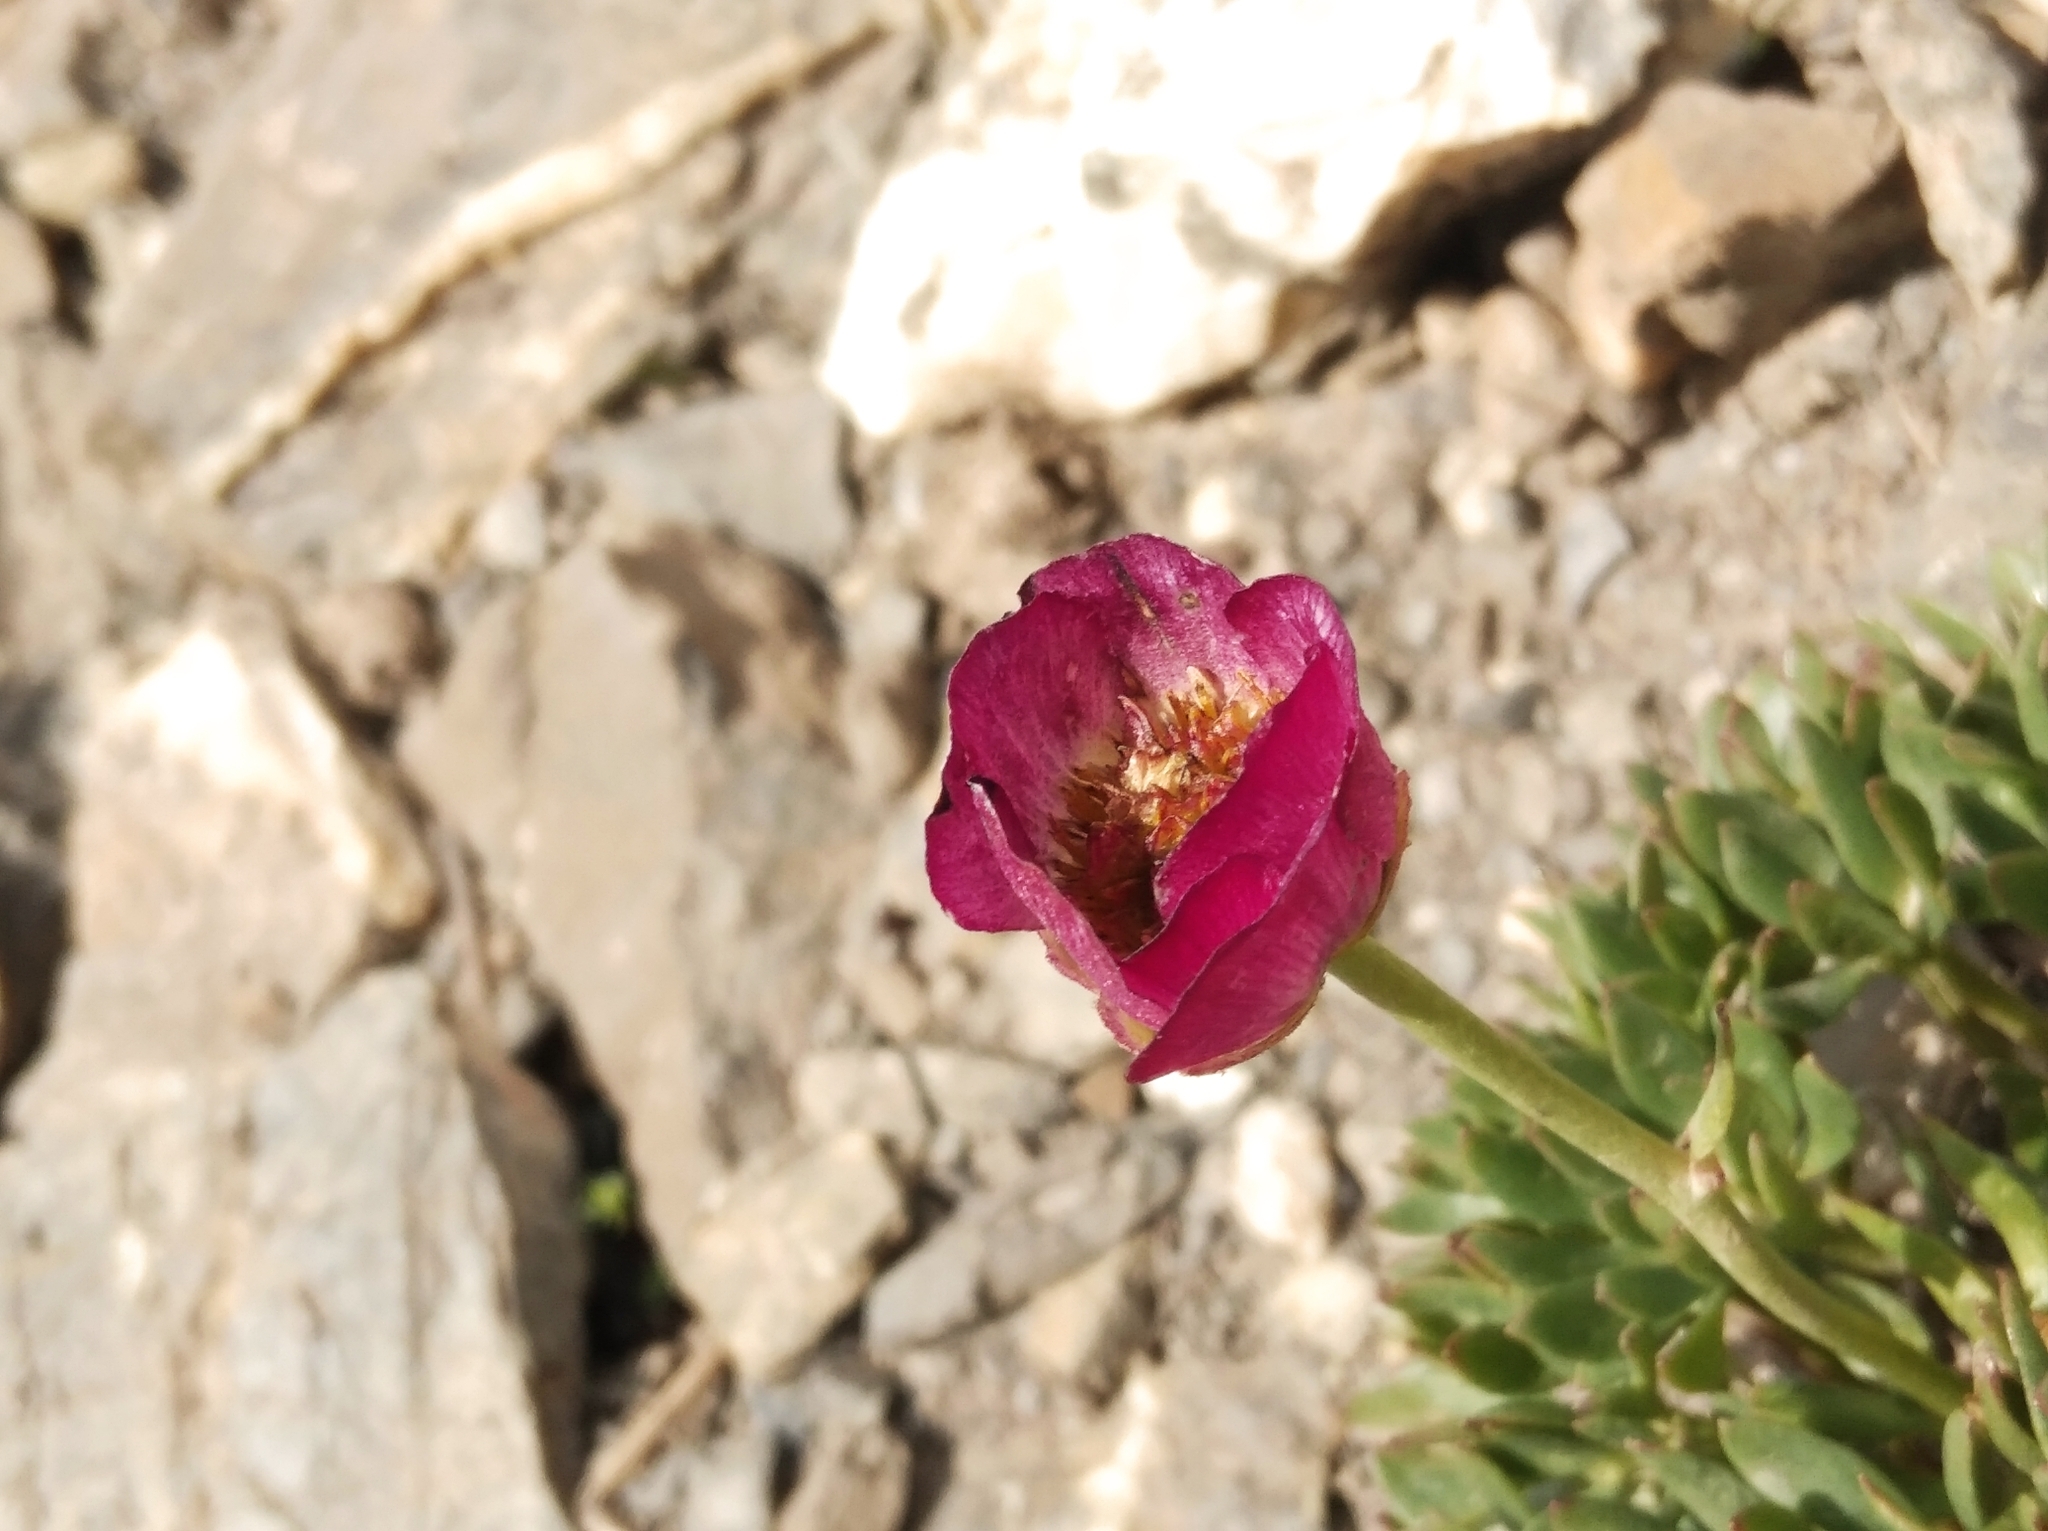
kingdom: Plantae
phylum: Tracheophyta
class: Magnoliopsida
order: Ranunculales
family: Ranunculaceae
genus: Ranunculus
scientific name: Ranunculus glacialis
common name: Glacier buttercup
